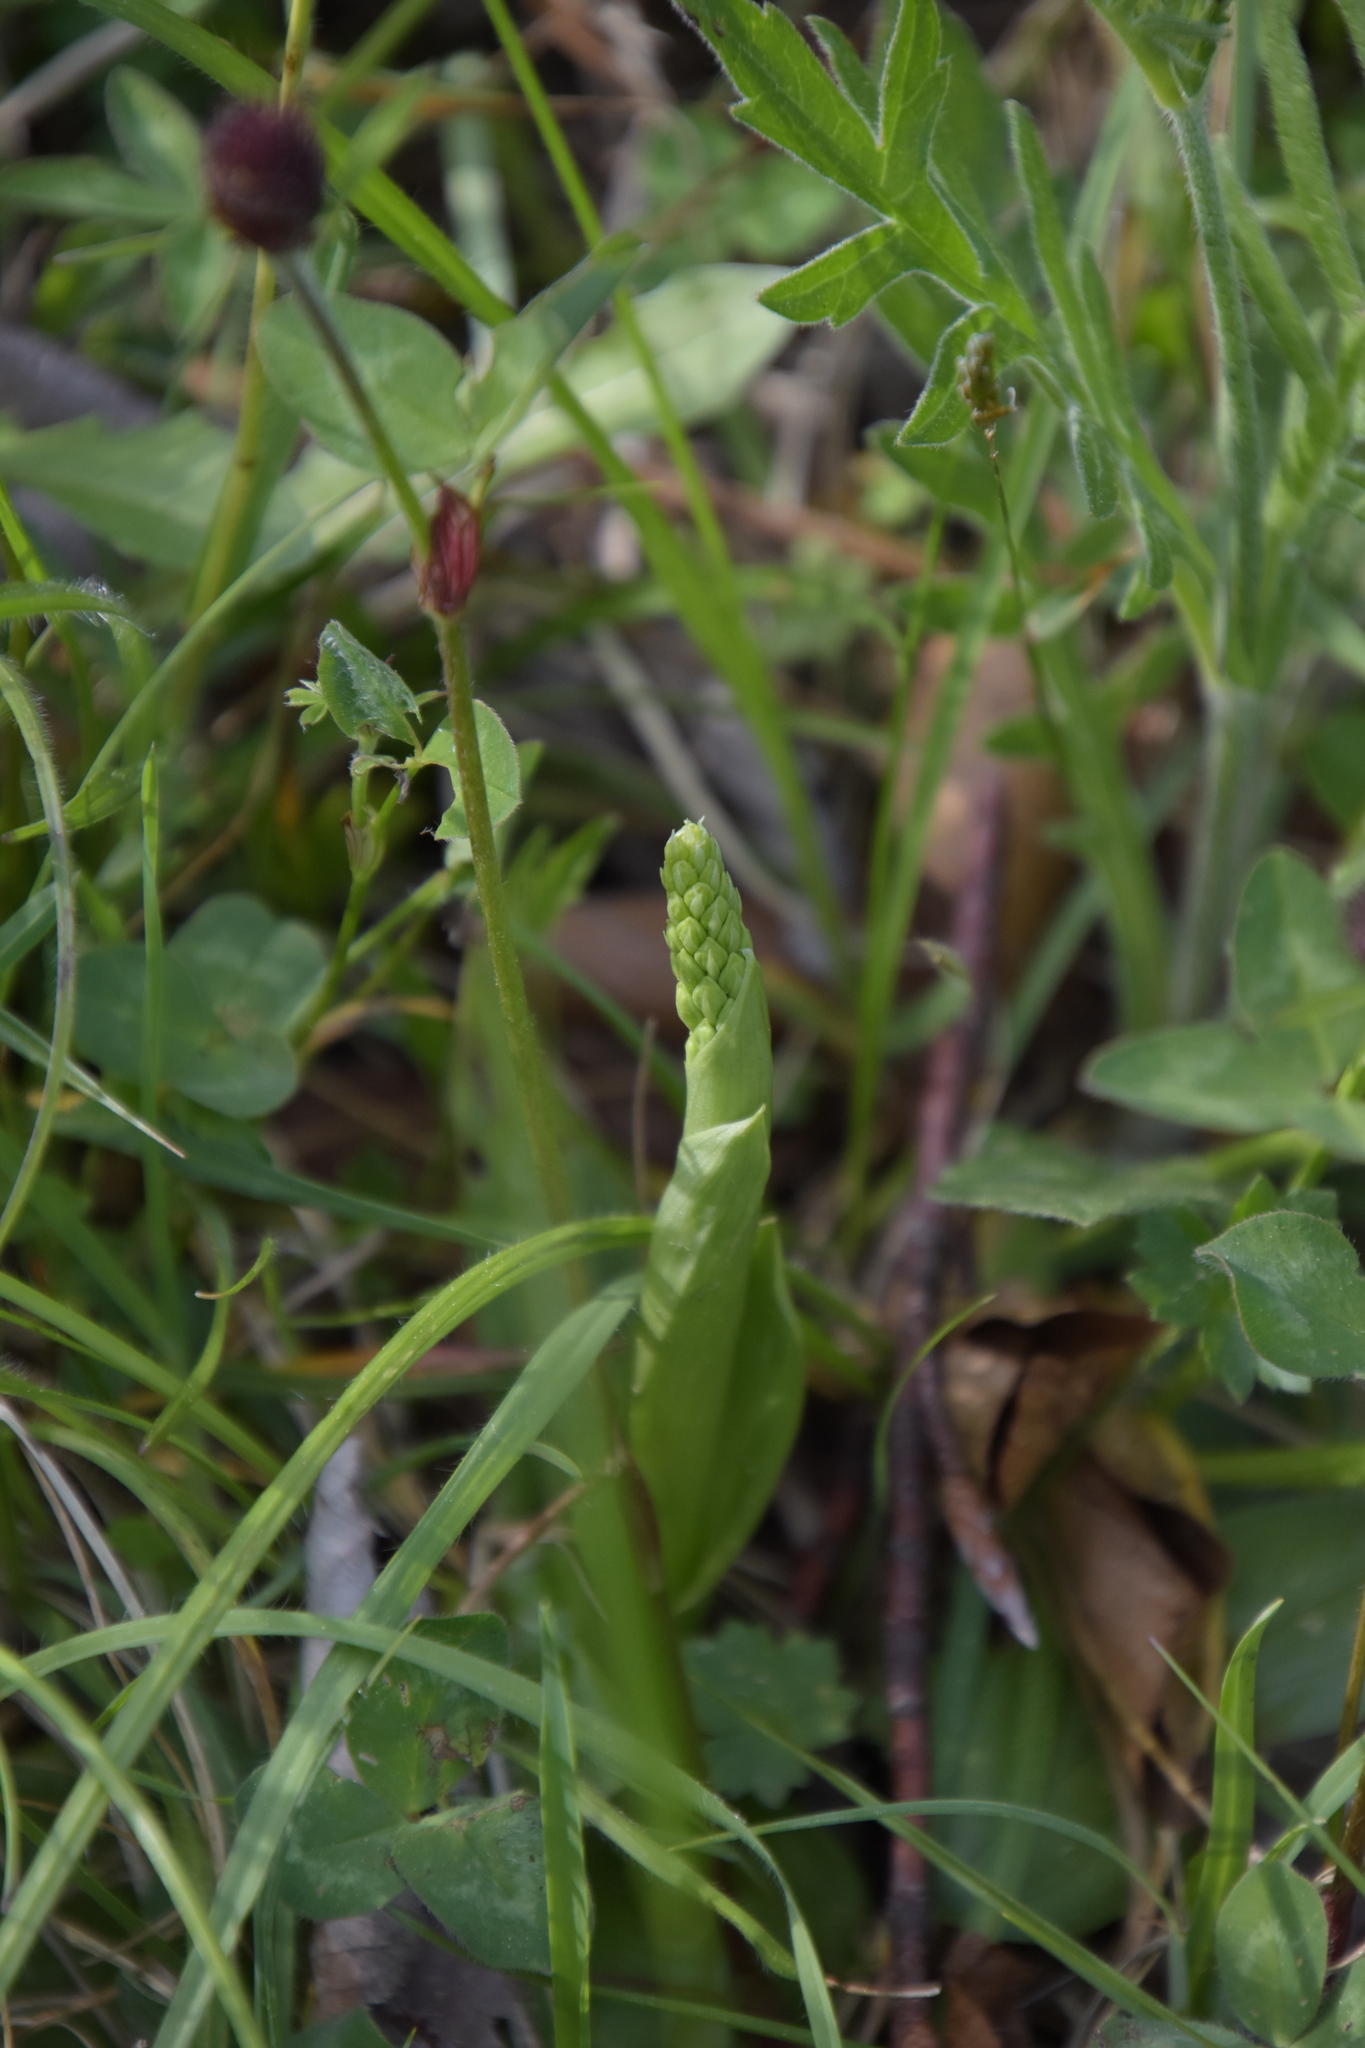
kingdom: Plantae
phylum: Tracheophyta
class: Liliopsida
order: Asparagales
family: Orchidaceae
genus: Orchis
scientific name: Orchis anthropophora
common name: Man orchid
